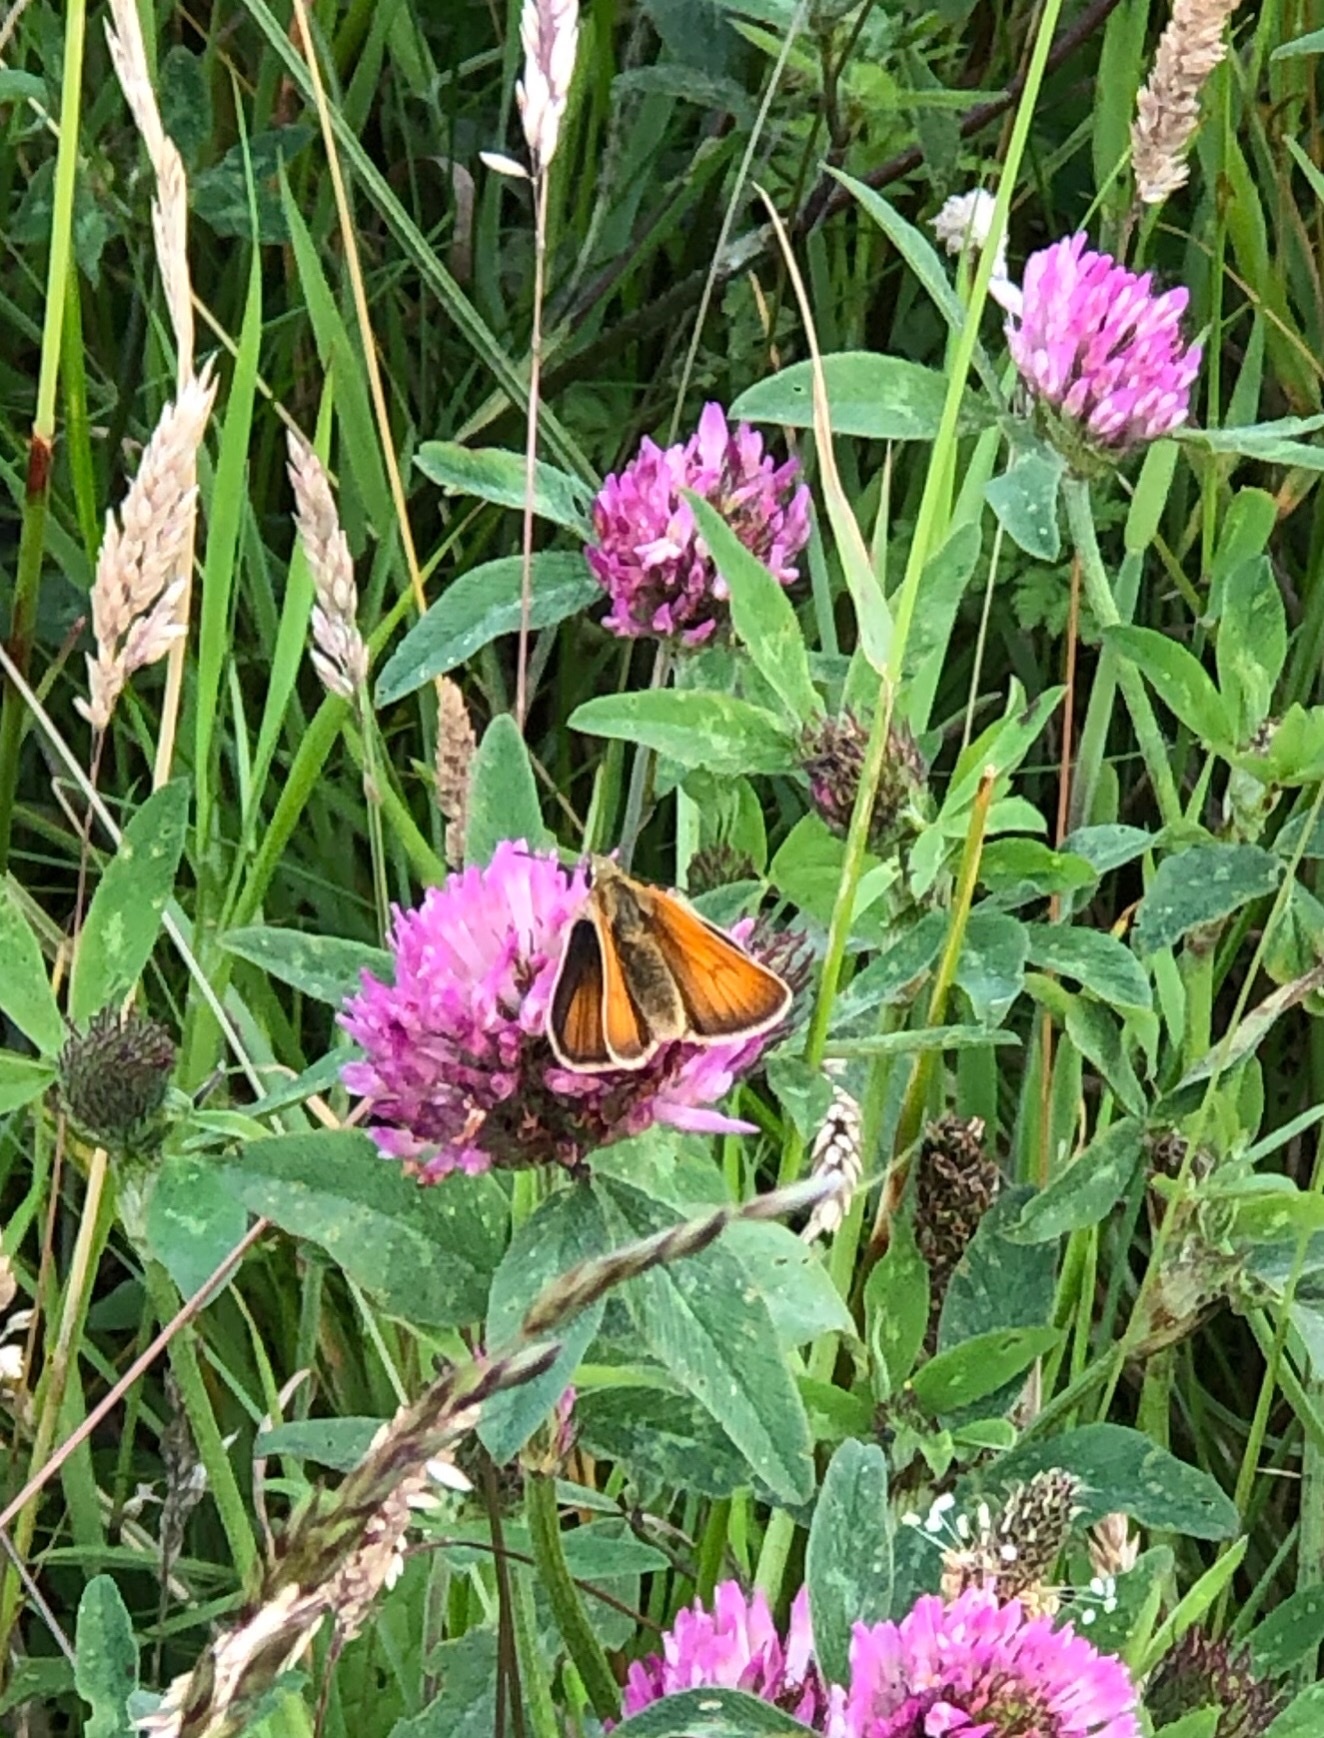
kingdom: Animalia
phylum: Arthropoda
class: Insecta
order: Lepidoptera
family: Hesperiidae
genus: Thymelicus
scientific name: Thymelicus sylvestris
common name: Small skipper
